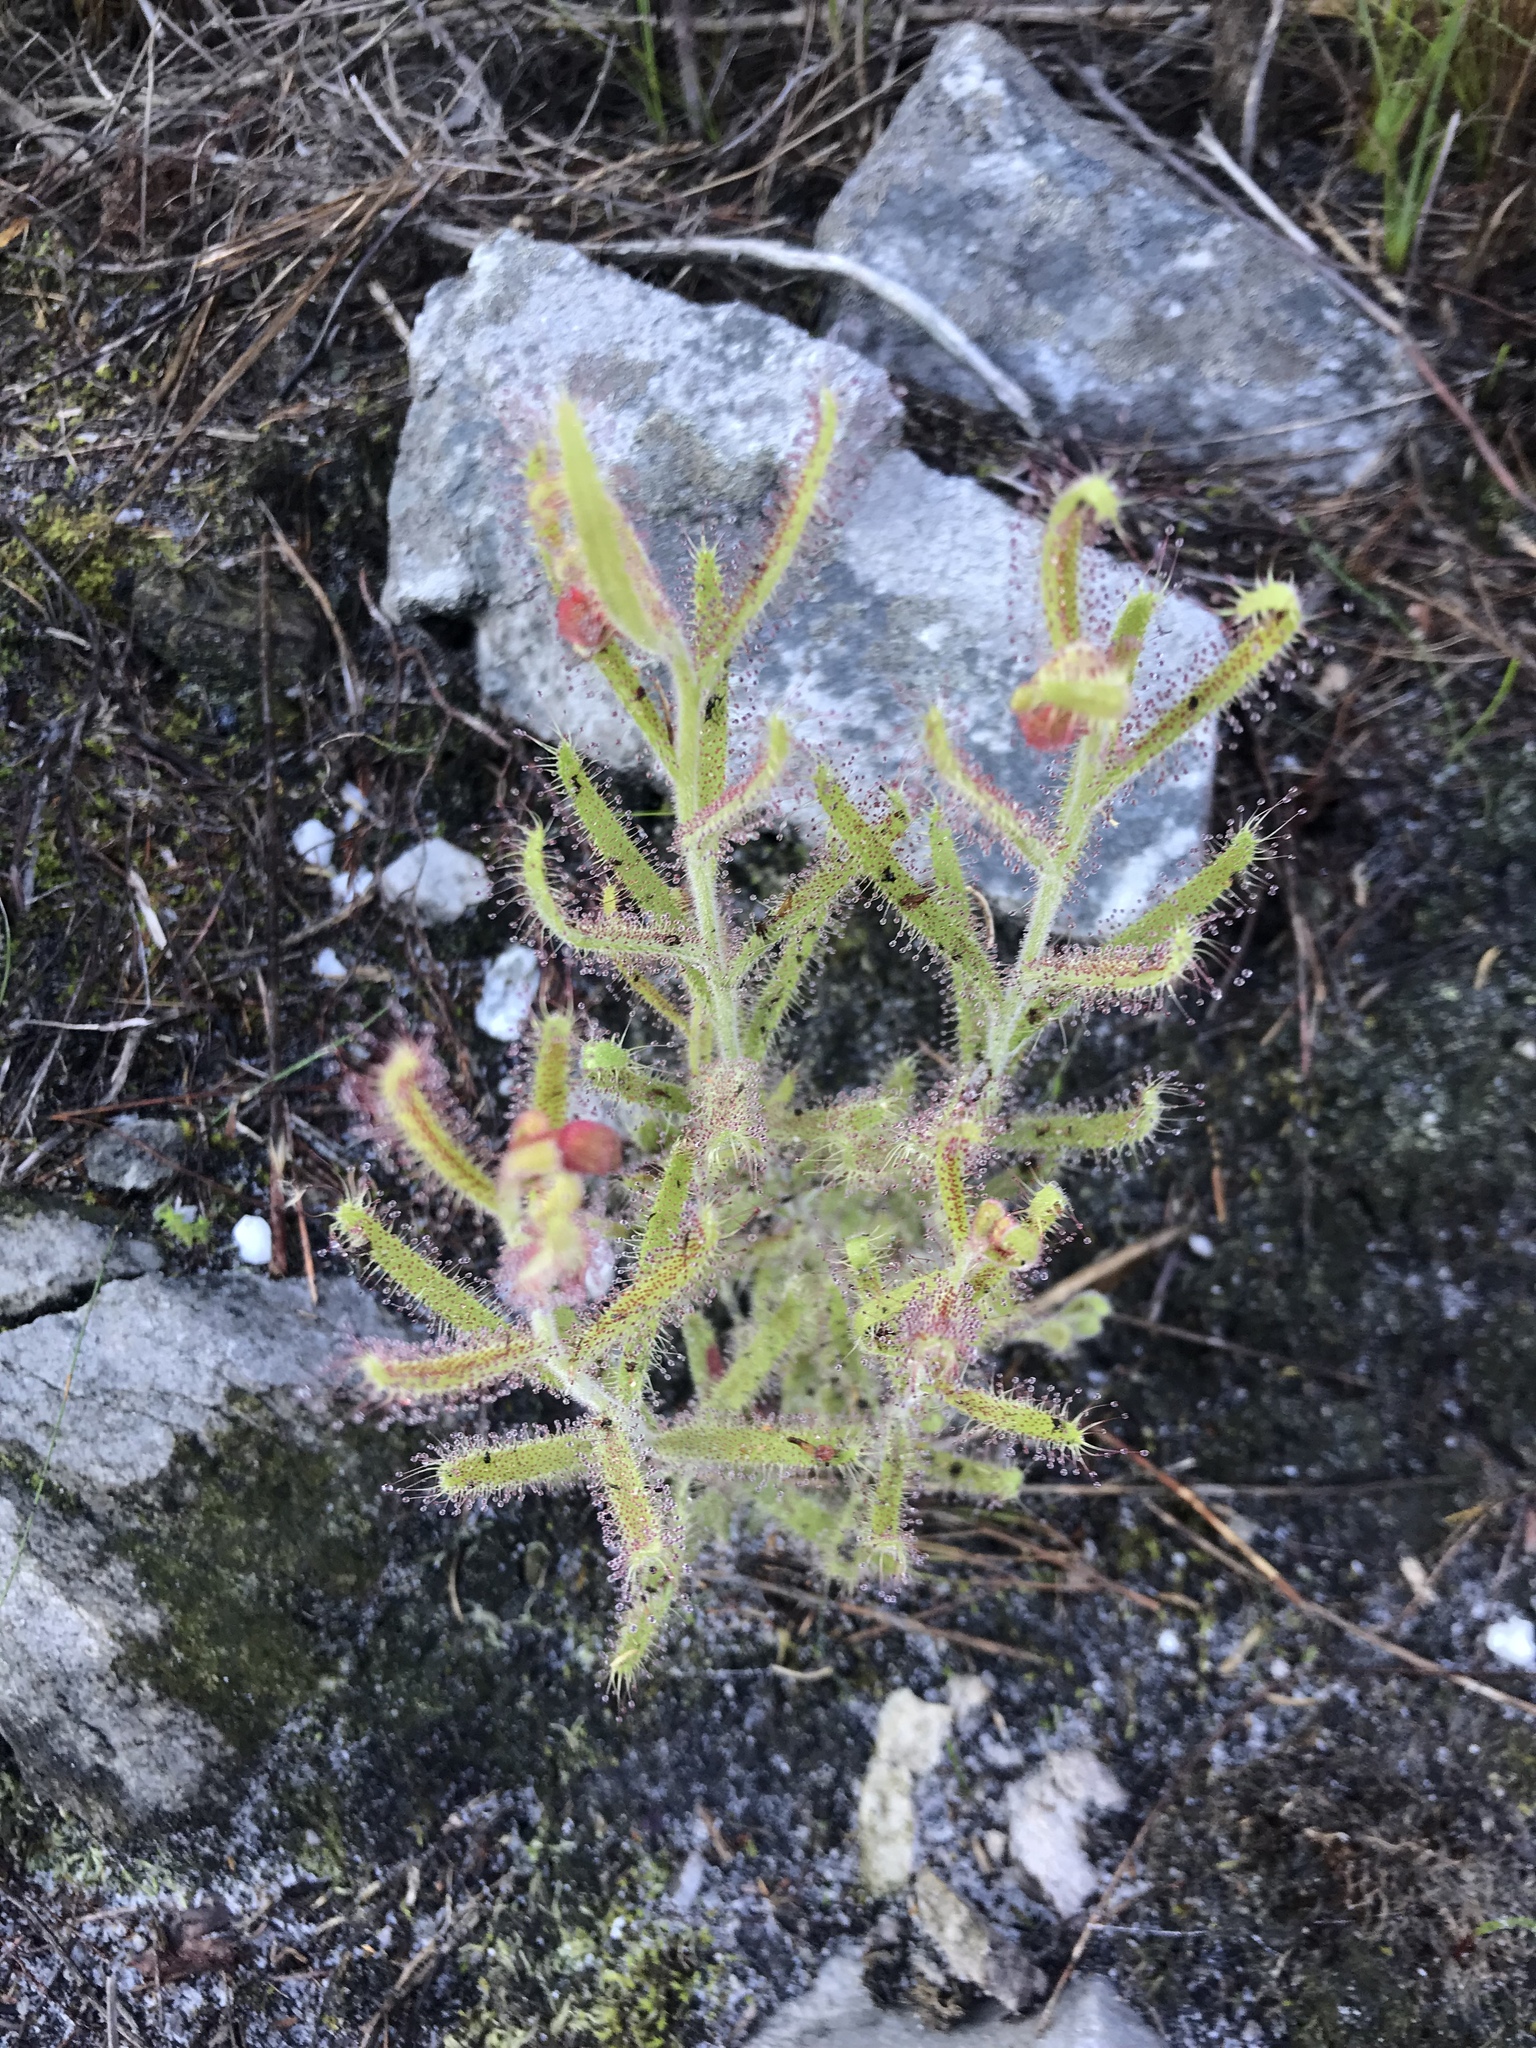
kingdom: Plantae
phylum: Tracheophyta
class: Magnoliopsida
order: Caryophyllales
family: Droseraceae
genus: Drosera
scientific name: Drosera cistiflora
